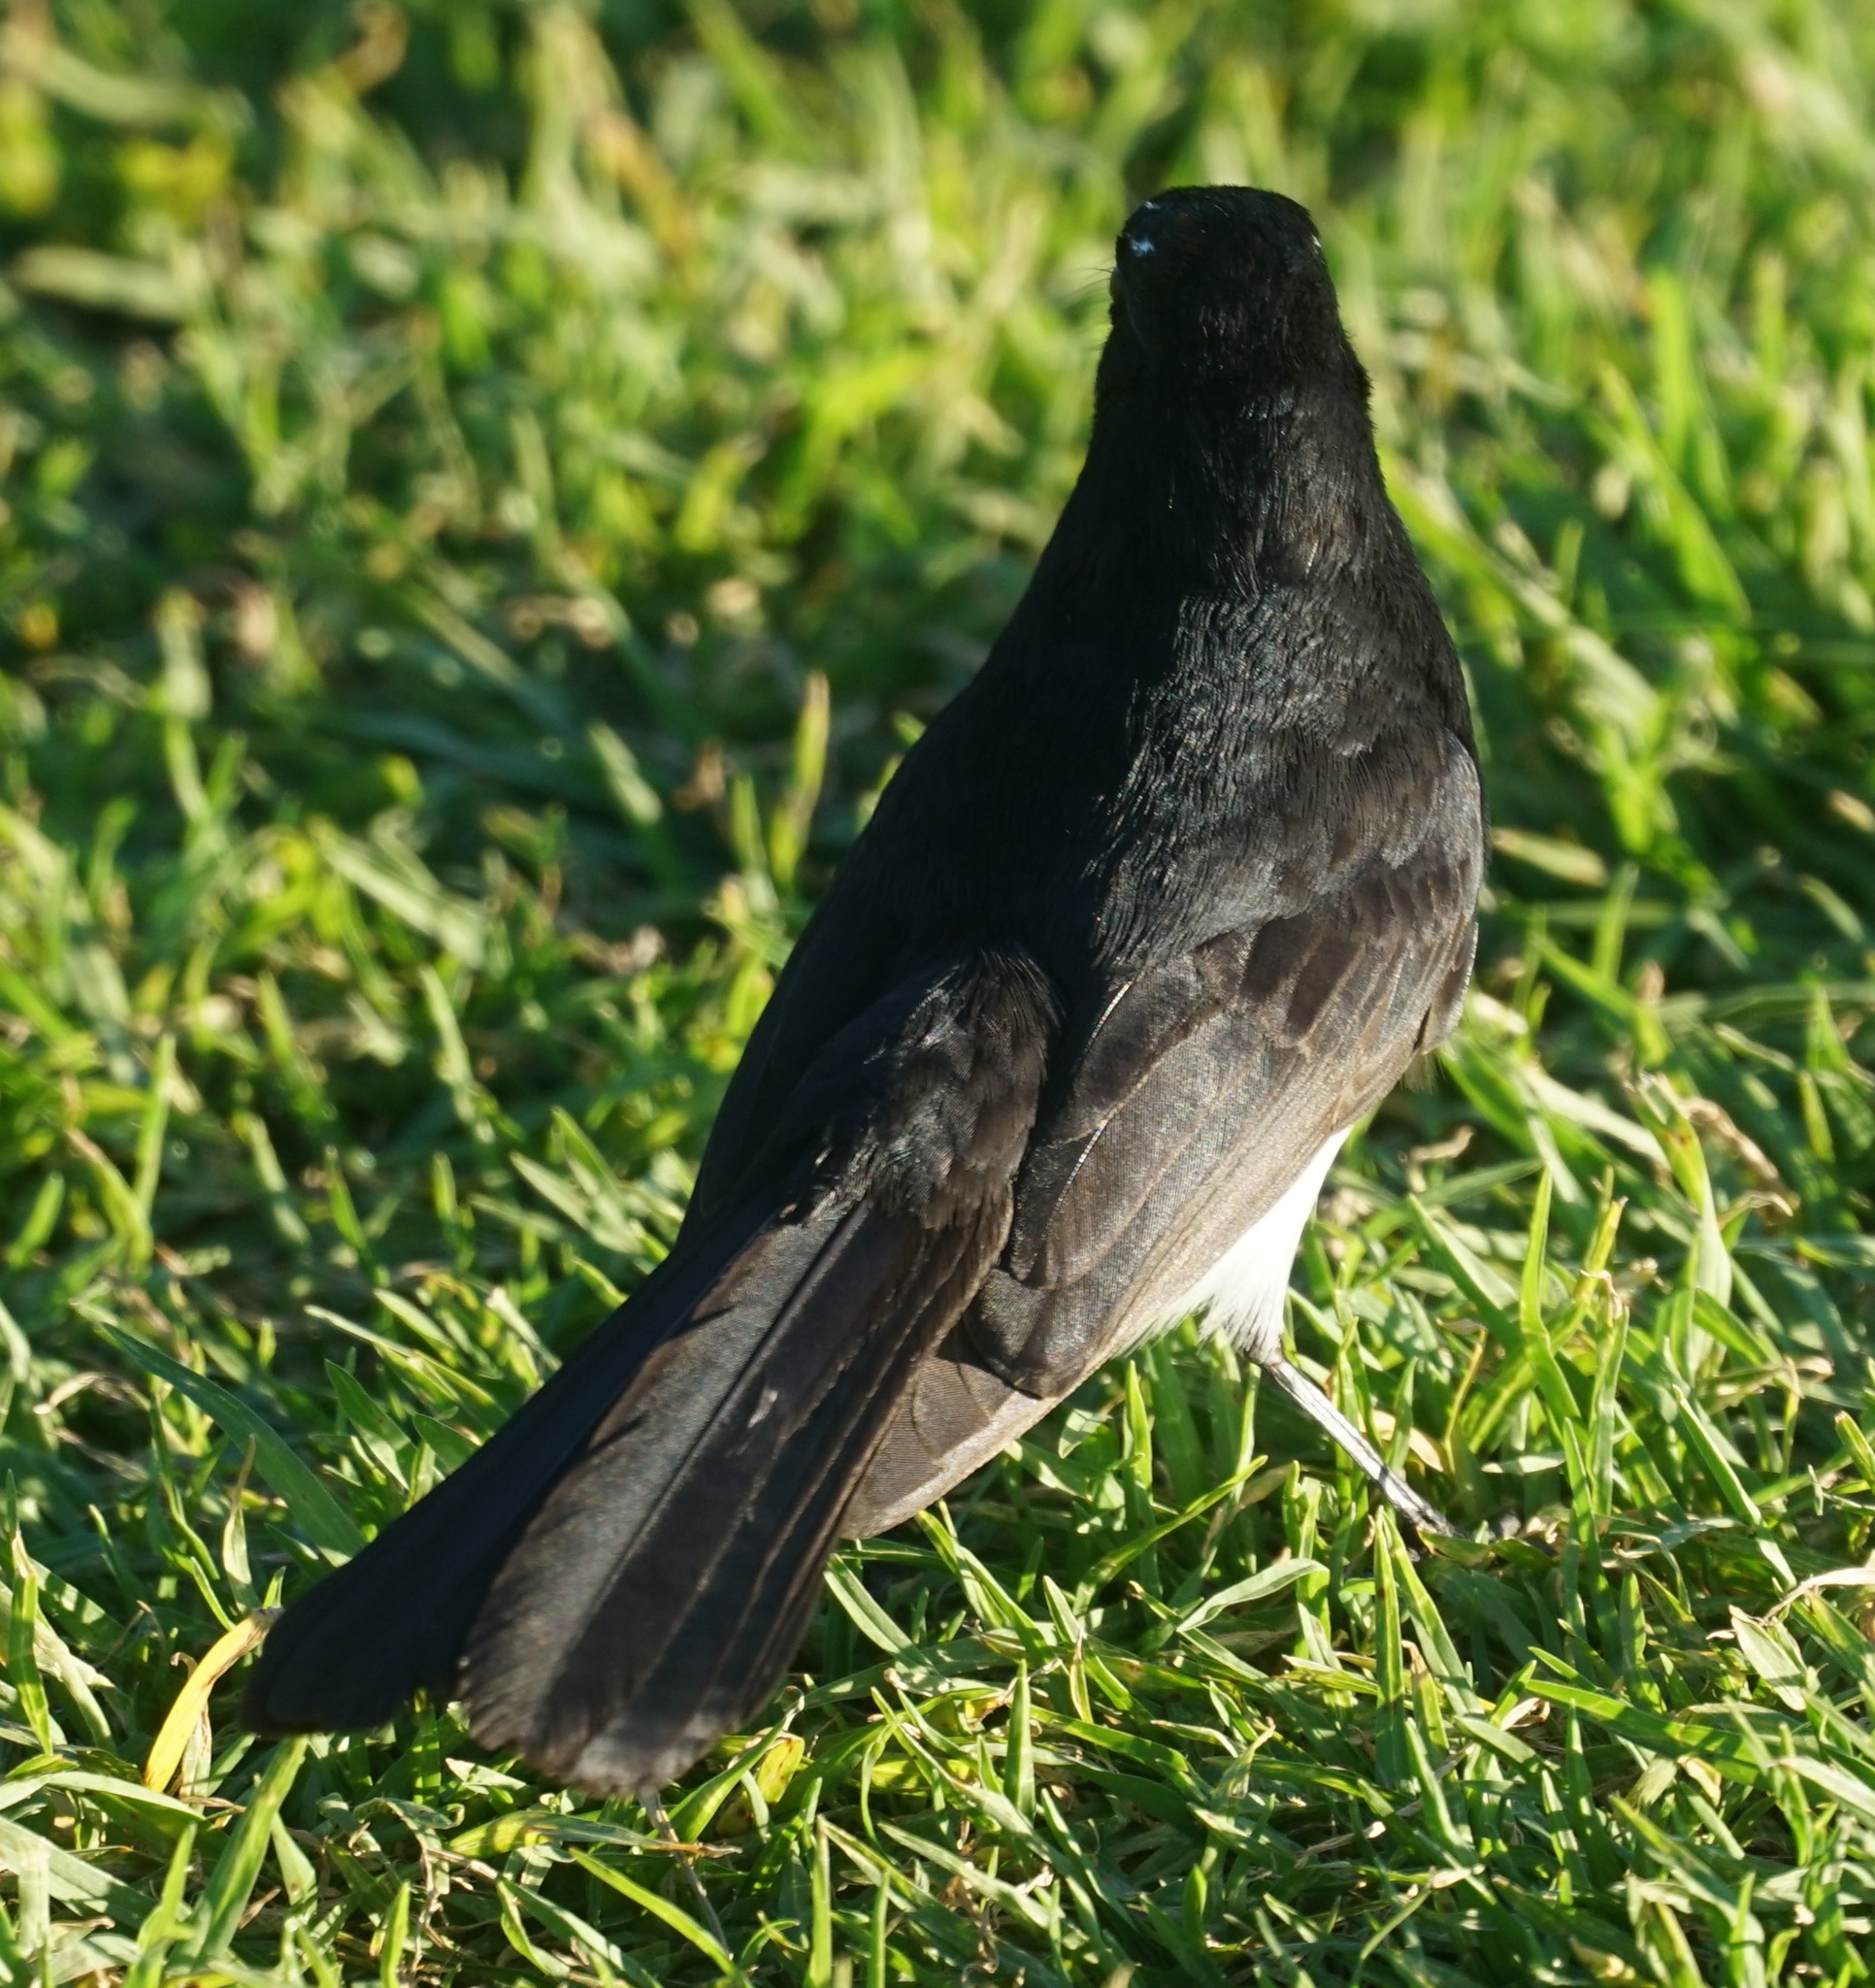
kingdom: Animalia
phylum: Chordata
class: Aves
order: Passeriformes
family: Rhipiduridae
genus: Rhipidura
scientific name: Rhipidura leucophrys
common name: Willie wagtail
